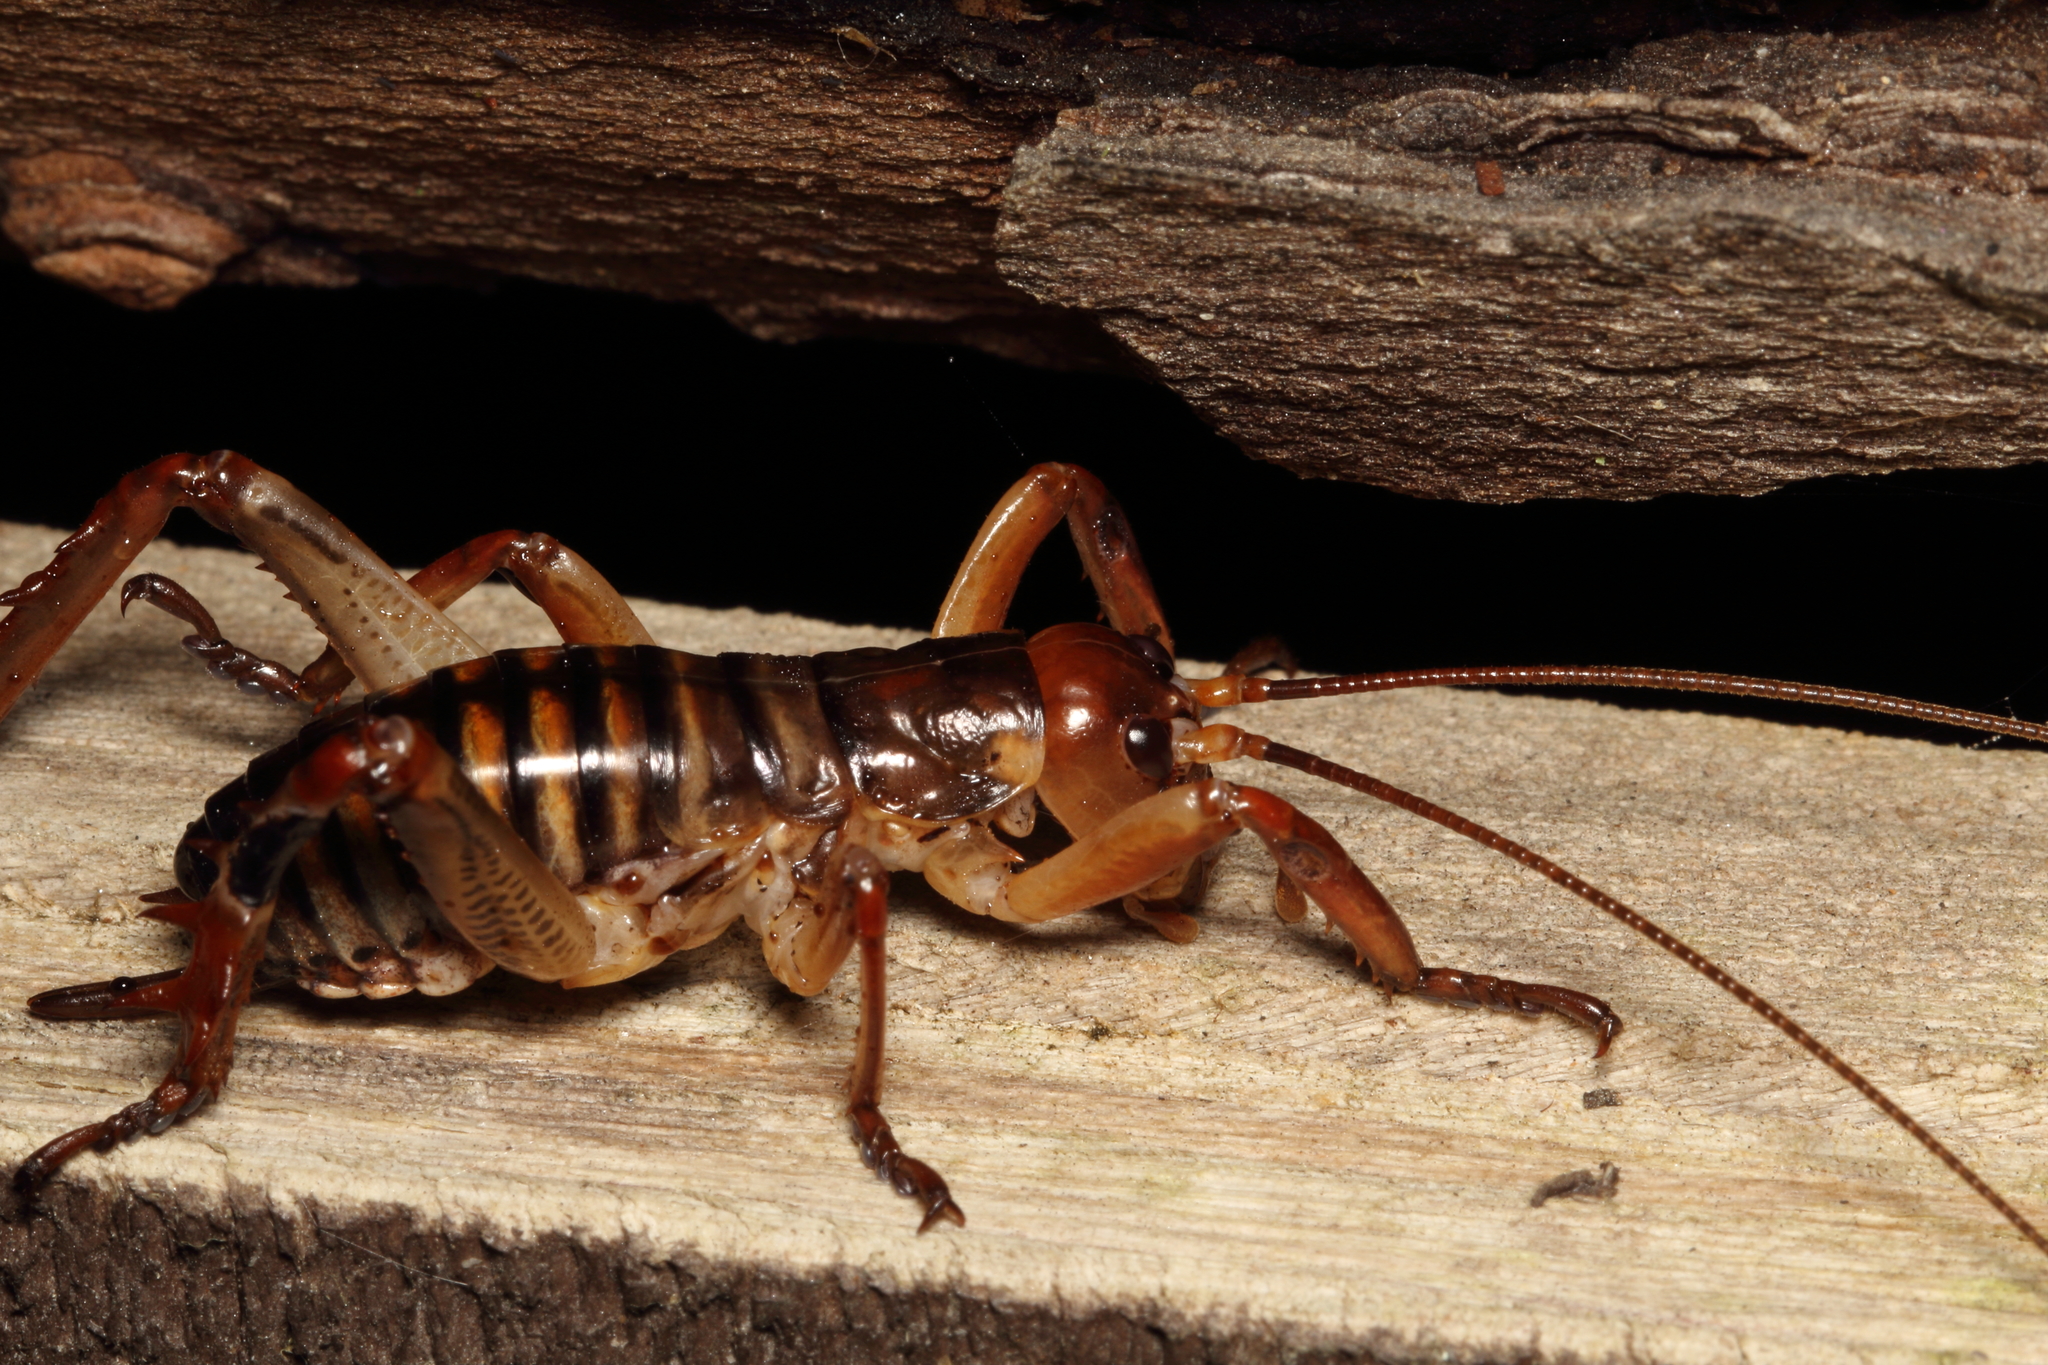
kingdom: Animalia
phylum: Arthropoda
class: Insecta
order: Orthoptera
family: Anostostomatidae
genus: Hemideina
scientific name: Hemideina crassidens
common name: Wellington tree weta
